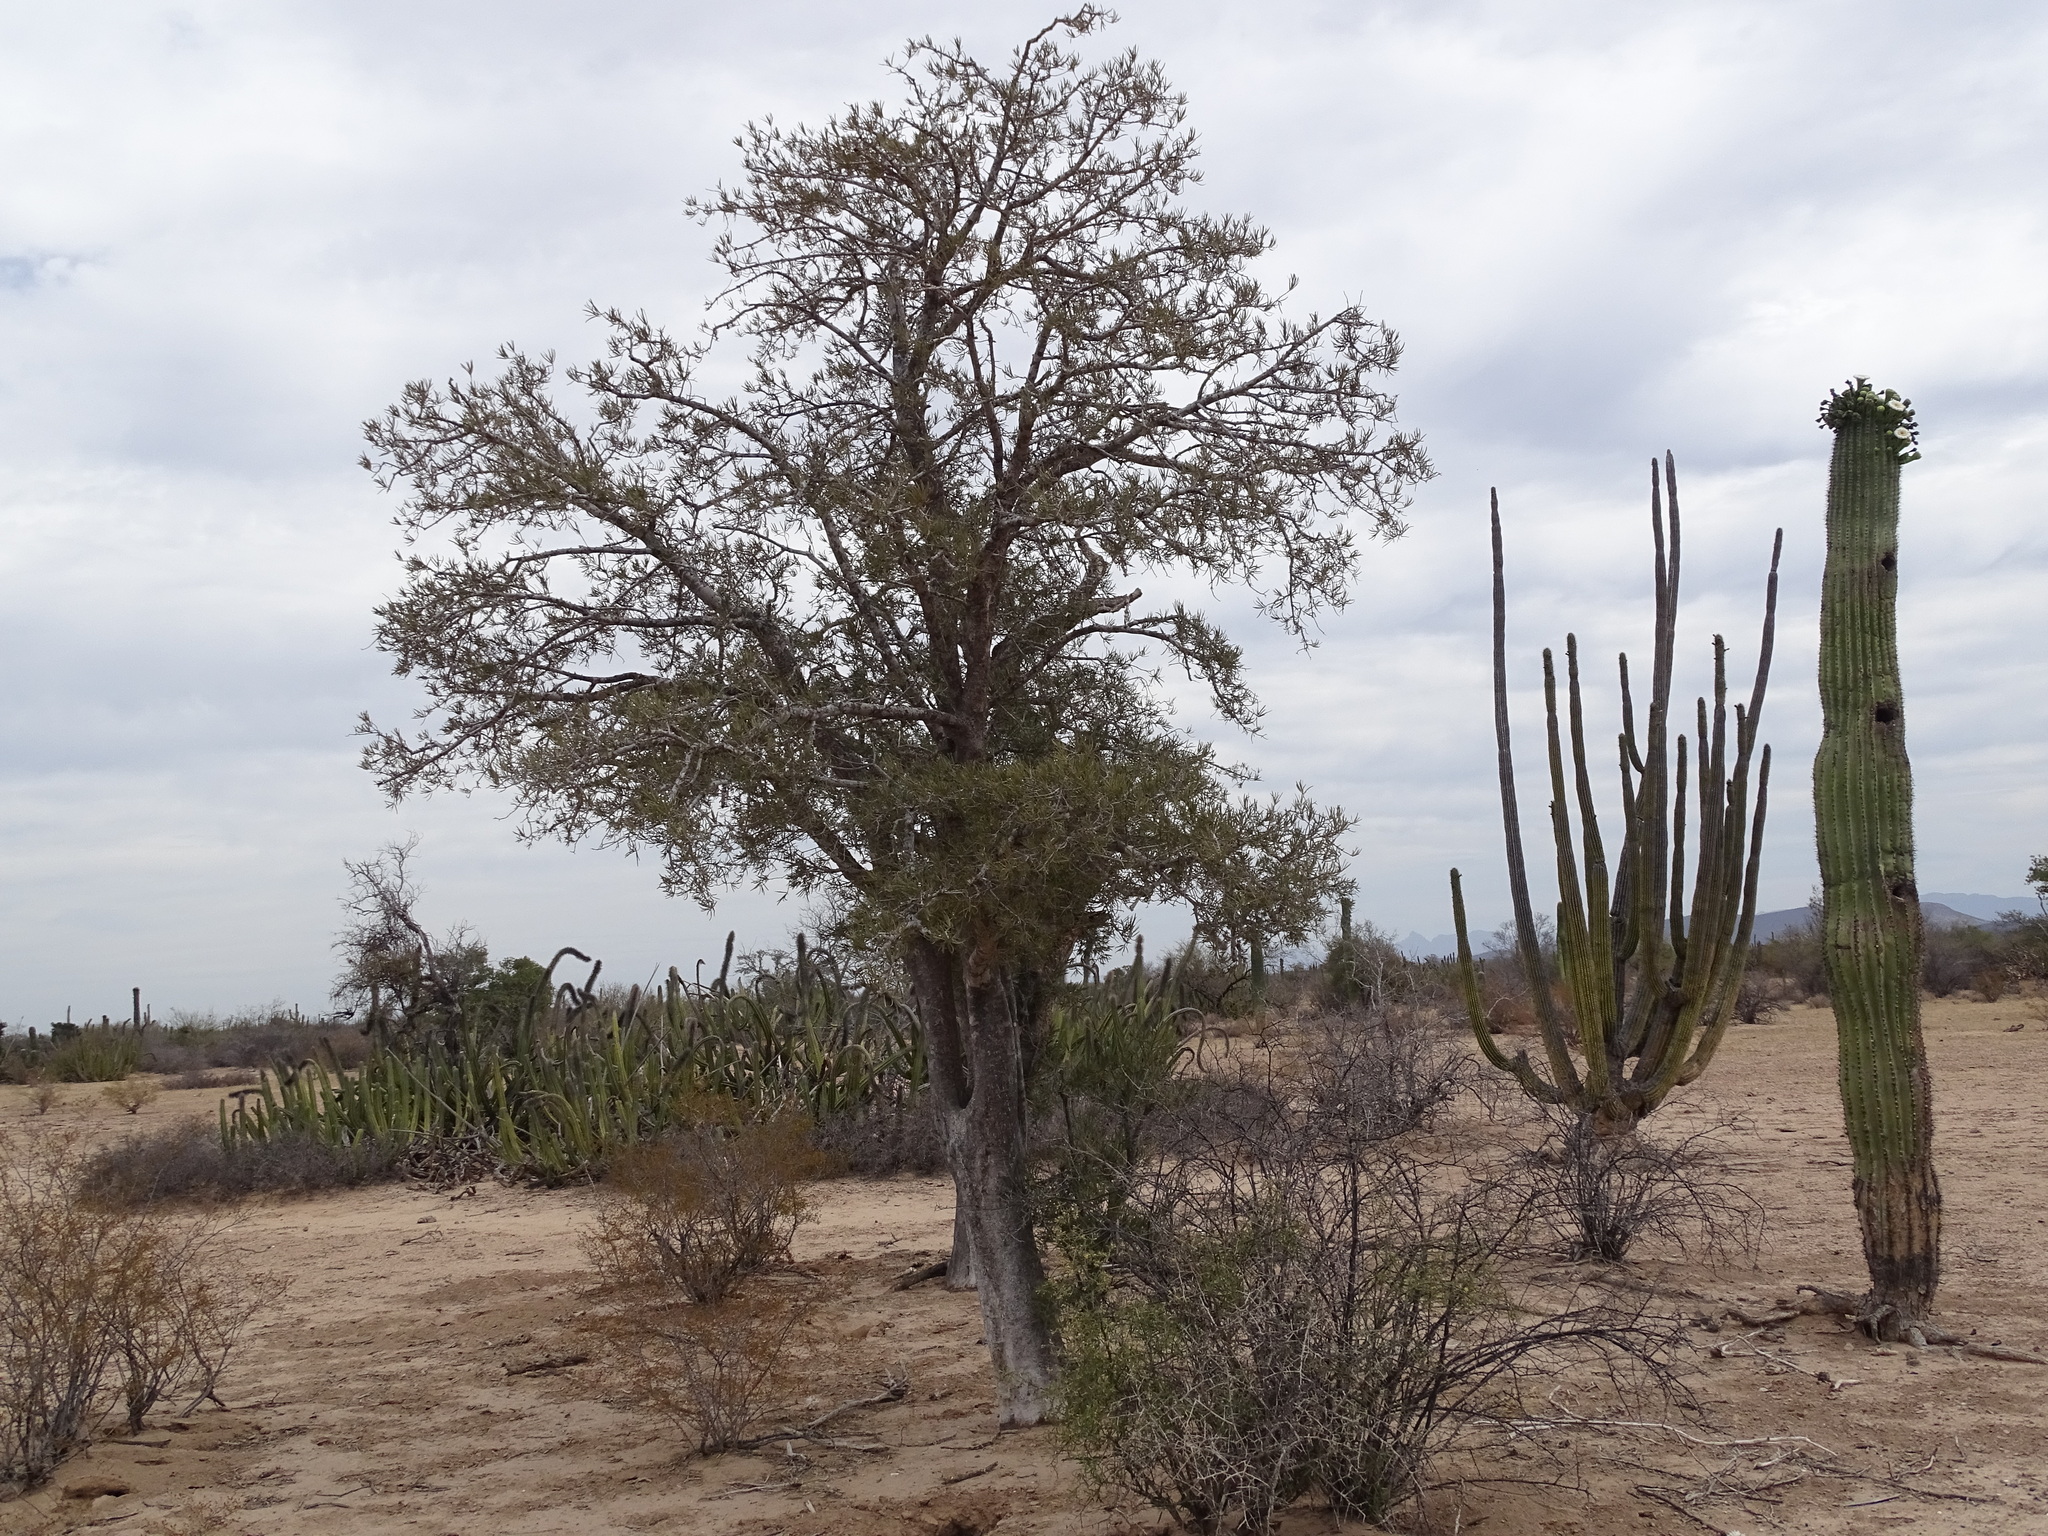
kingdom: Plantae
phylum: Tracheophyta
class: Magnoliopsida
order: Brassicales
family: Stixaceae
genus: Forchhammeria
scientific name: Forchhammeria watsonii
